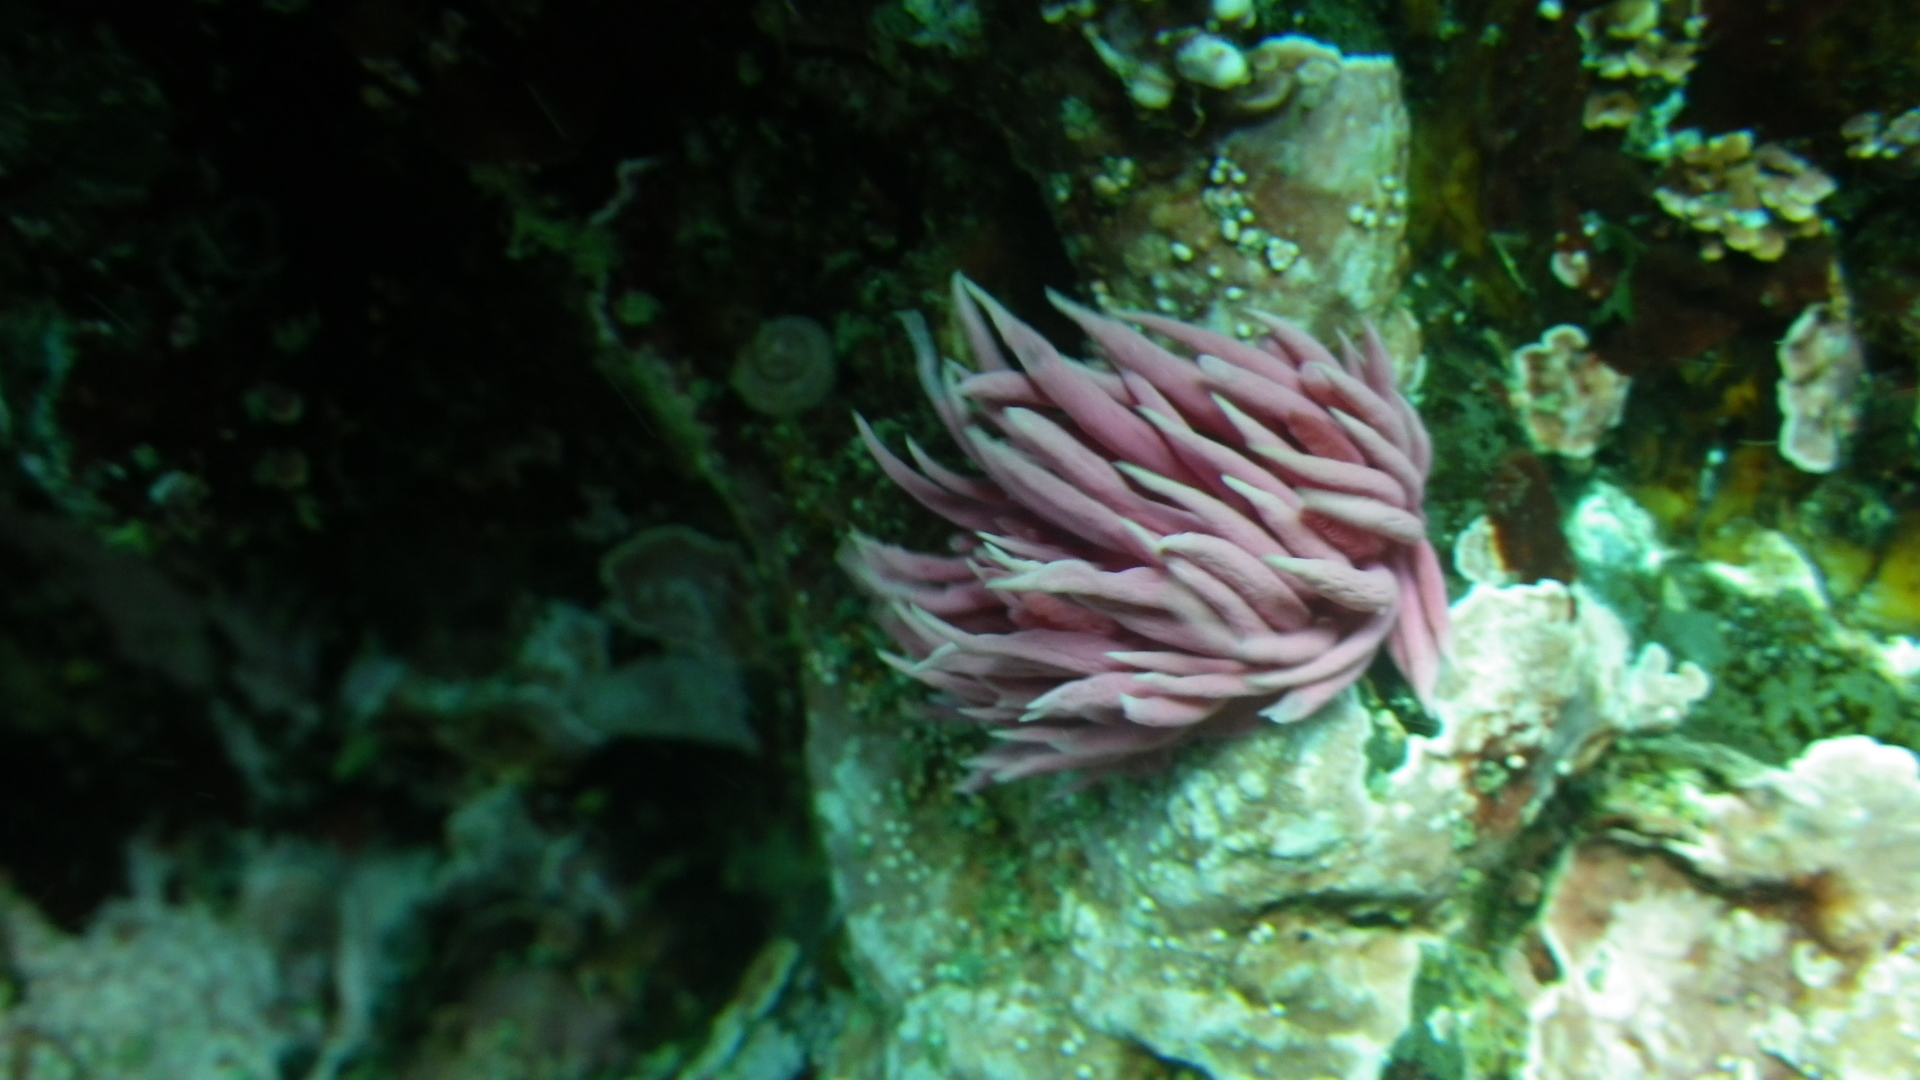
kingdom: Animalia
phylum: Mollusca
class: Gastropoda
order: Nudibranchia
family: Goniodorididae
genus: Okenia
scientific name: Okenia
